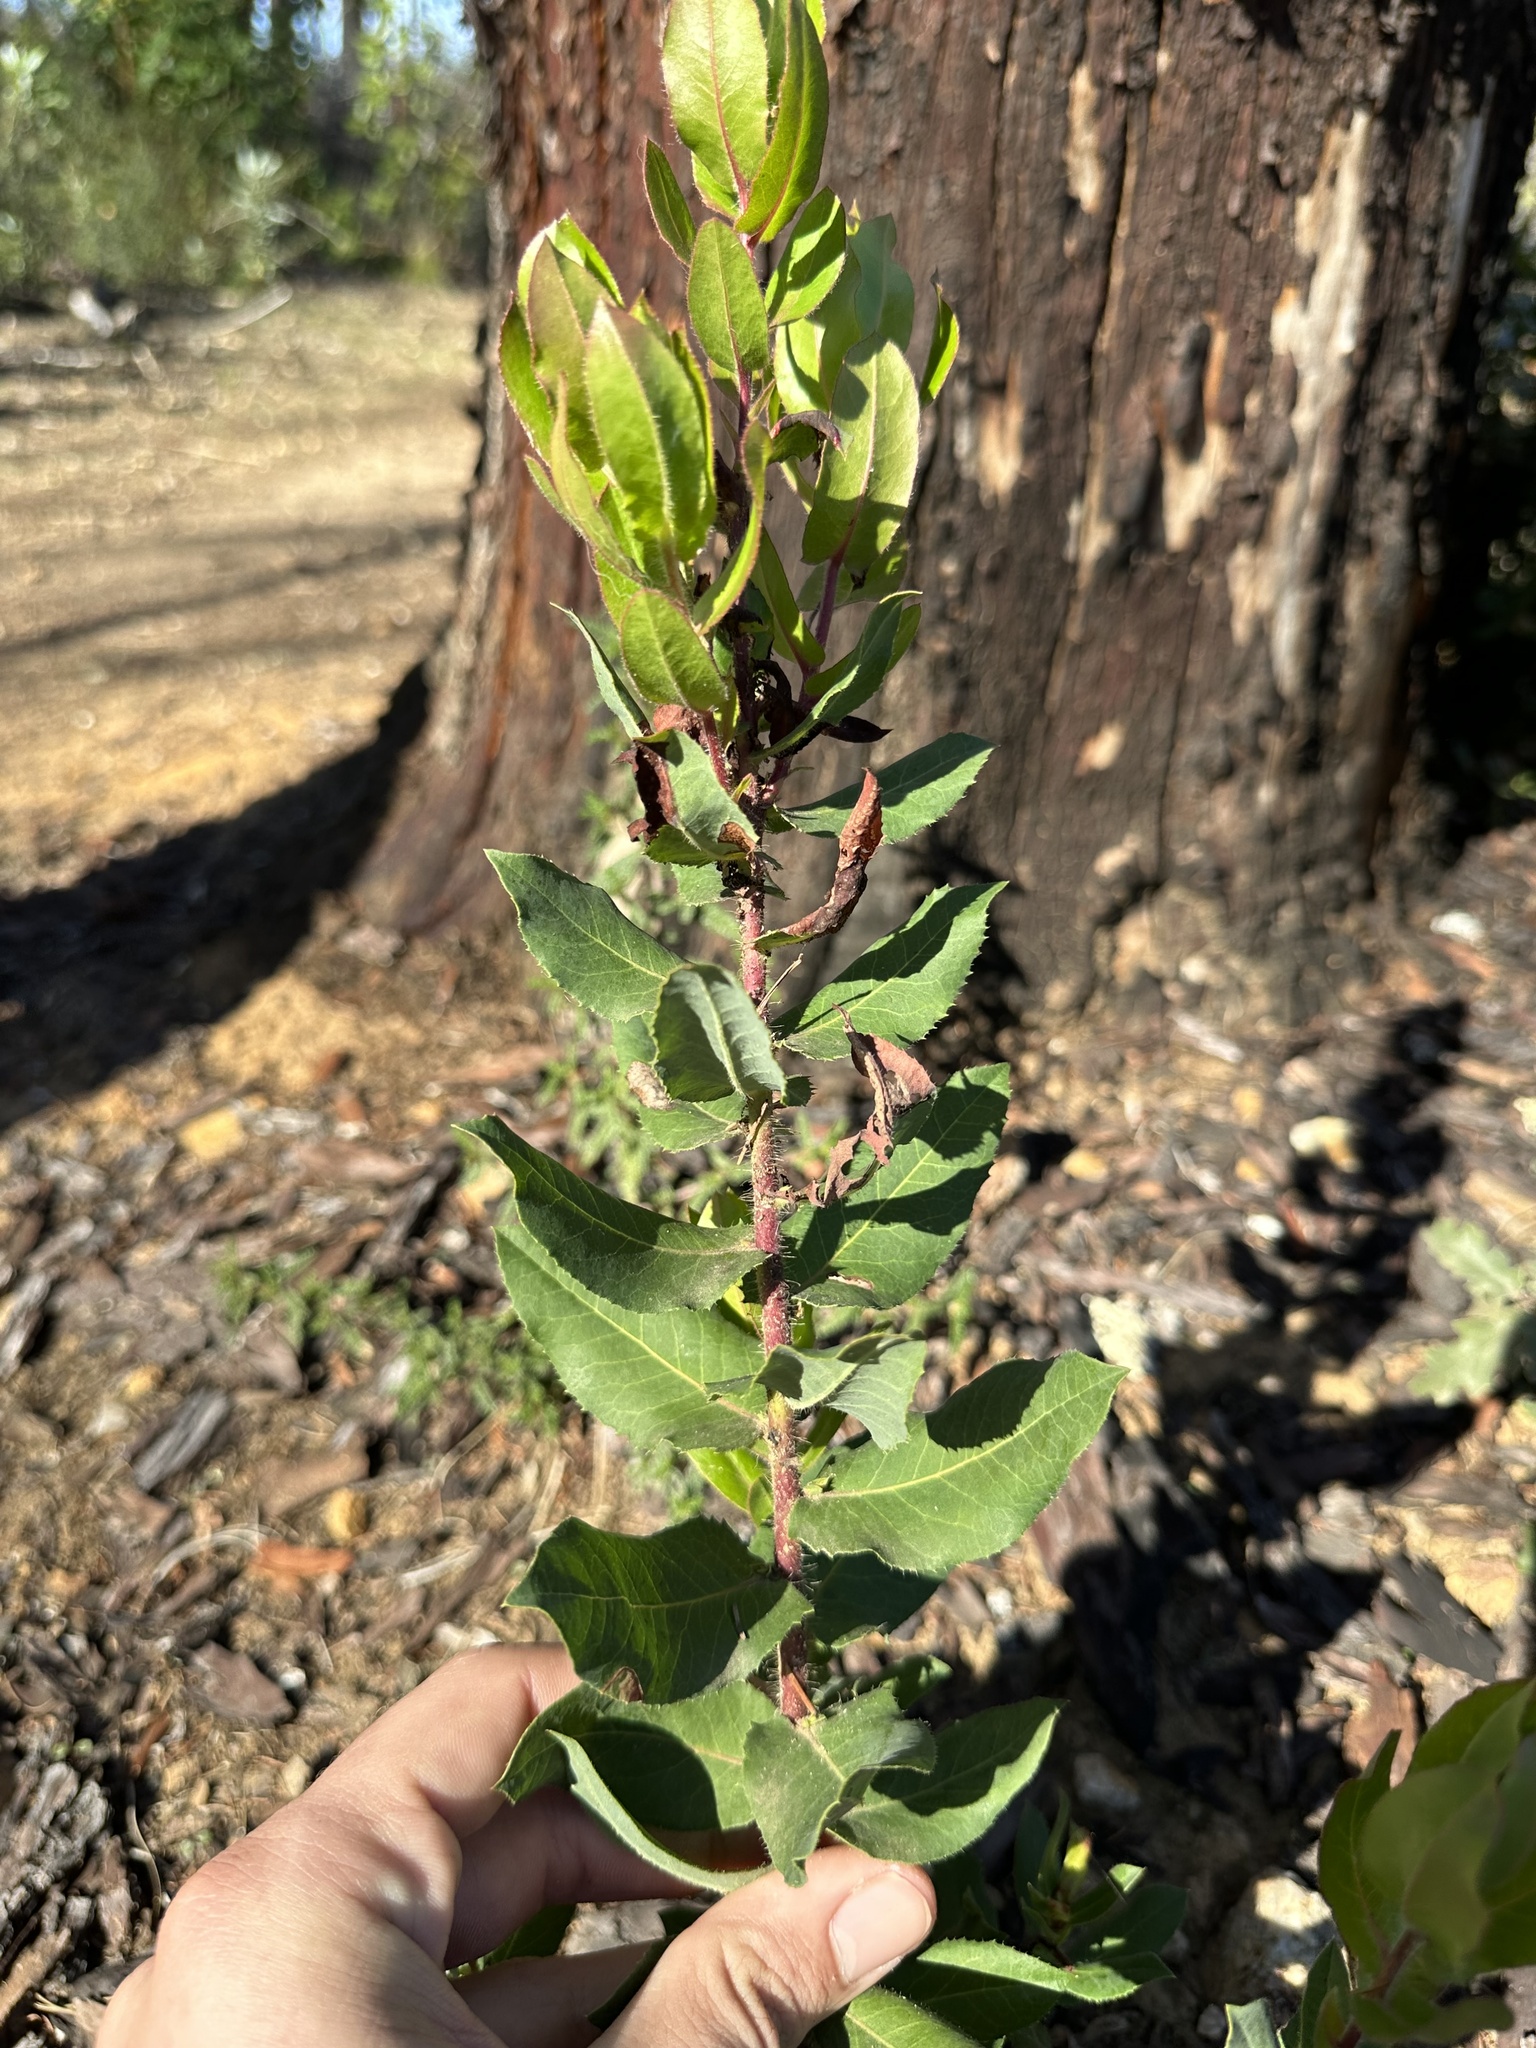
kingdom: Plantae
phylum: Tracheophyta
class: Magnoliopsida
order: Ericales
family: Ericaceae
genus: Arctostaphylos
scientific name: Arctostaphylos andersonii
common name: Santa cruz manzanita
